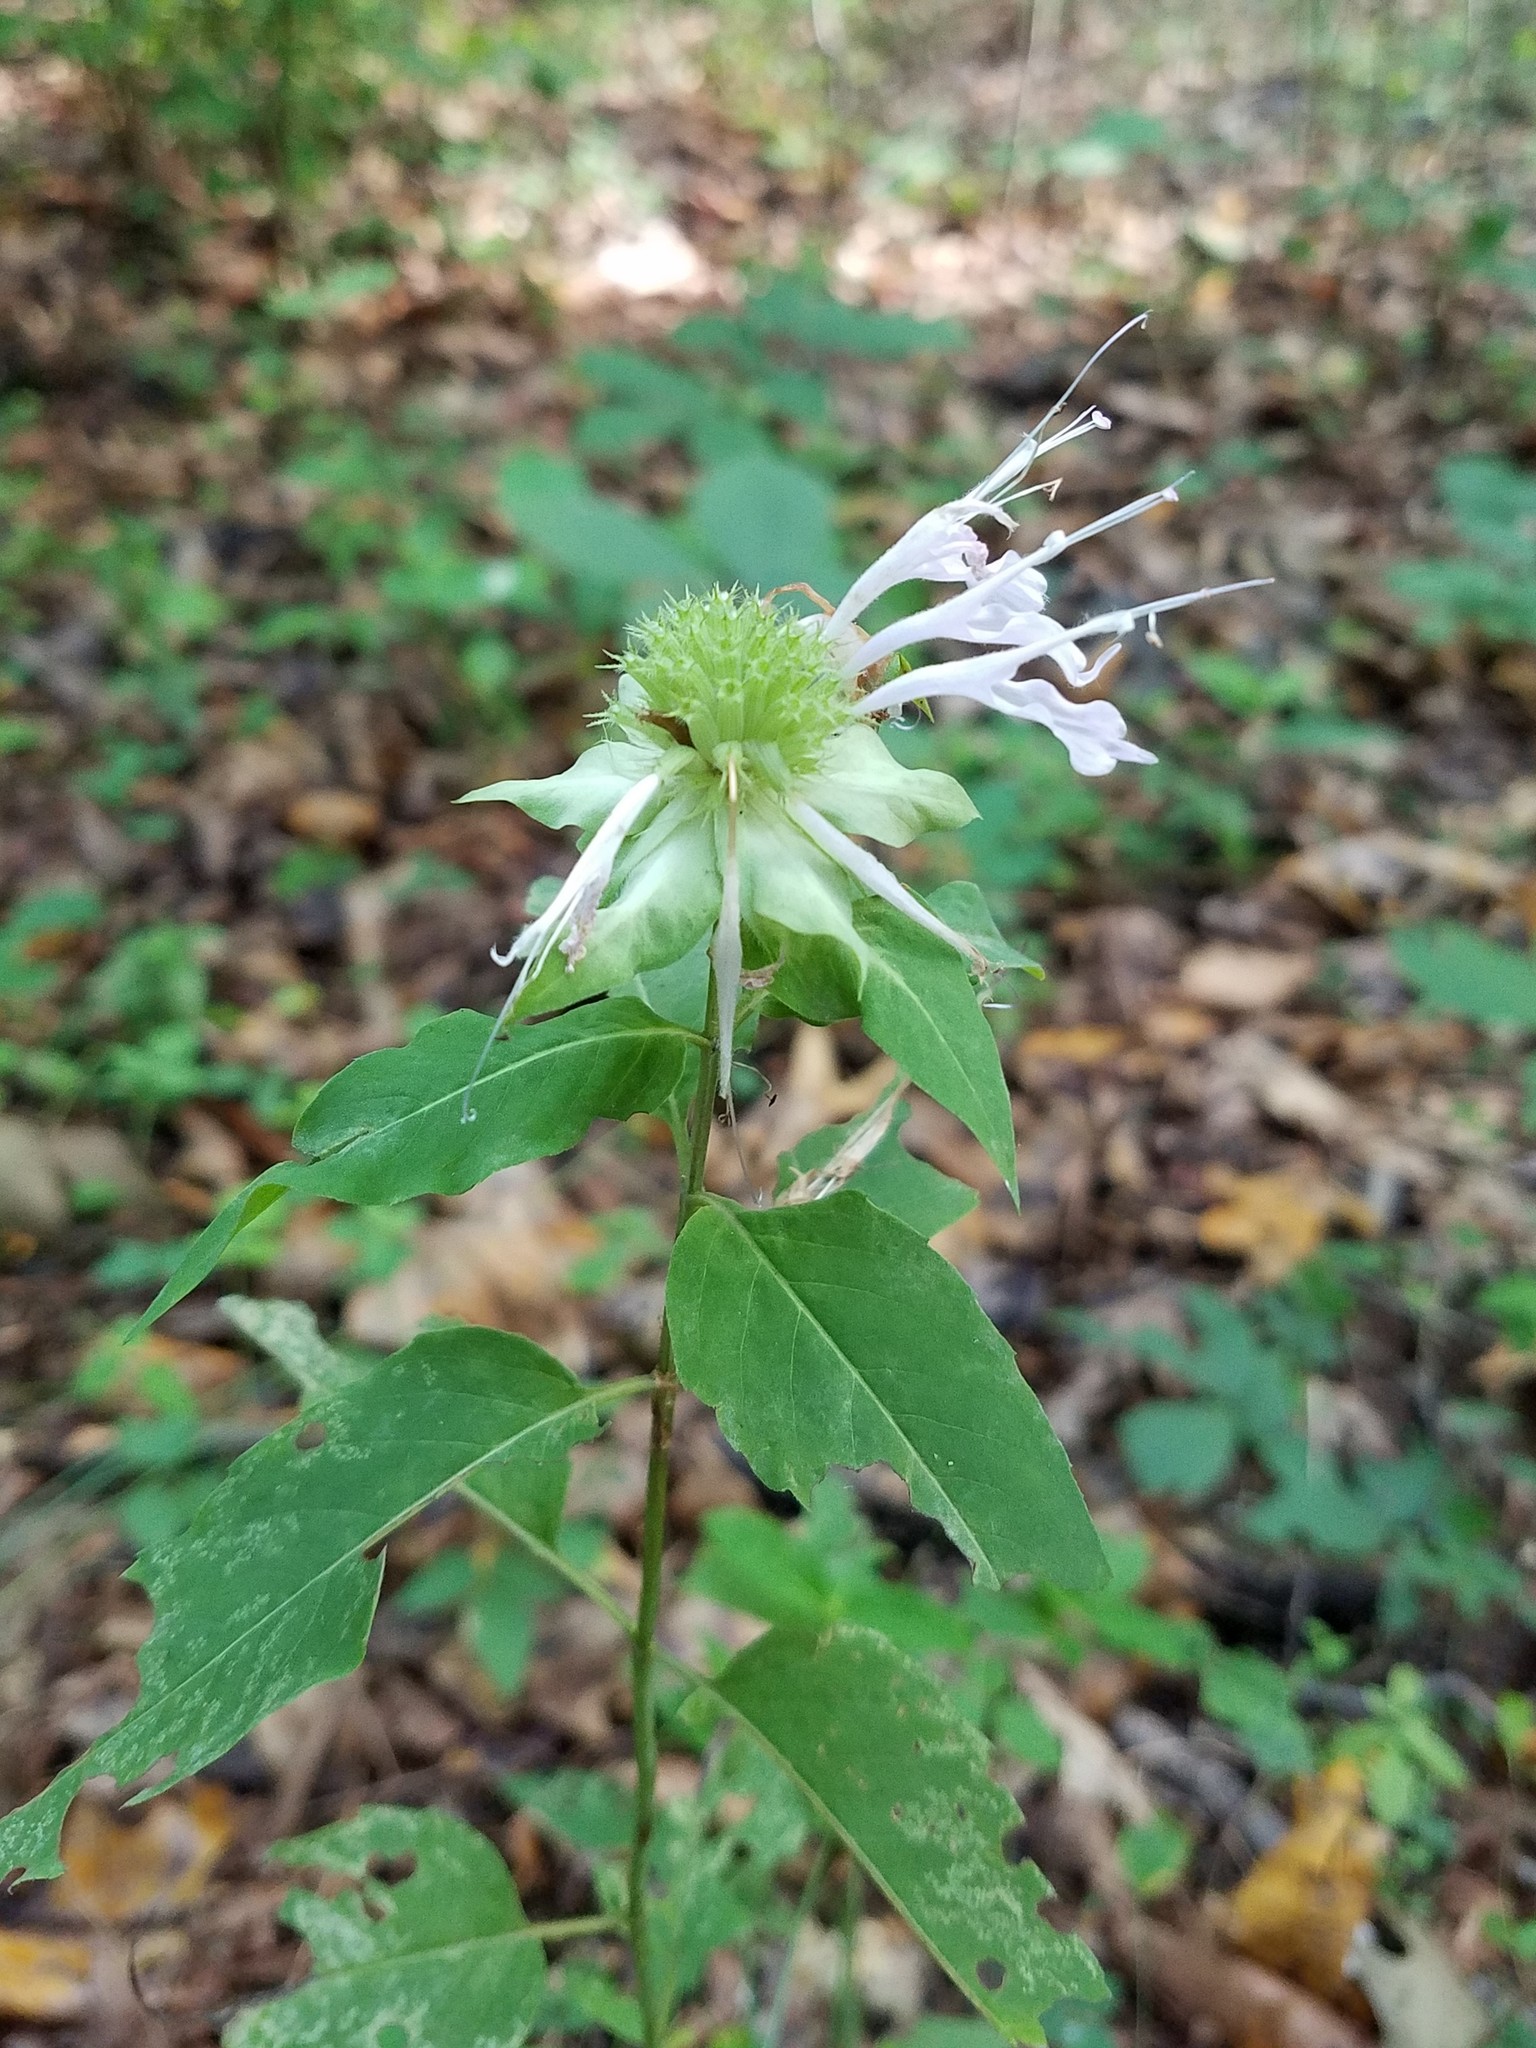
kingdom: Plantae
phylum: Tracheophyta
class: Magnoliopsida
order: Lamiales
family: Lamiaceae
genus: Monarda
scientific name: Monarda fistulosa
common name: Purple beebalm
